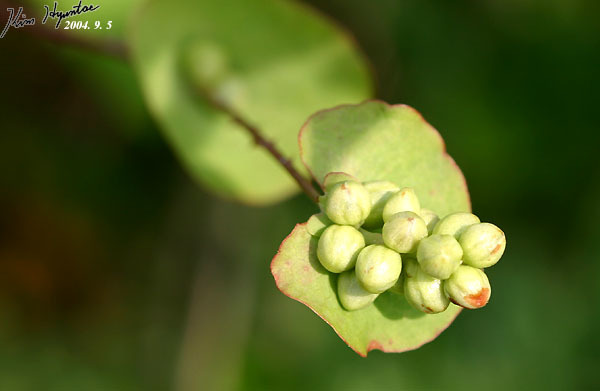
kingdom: Plantae
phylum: Tracheophyta
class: Magnoliopsida
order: Caryophyllales
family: Polygonaceae
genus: Persicaria
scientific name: Persicaria perfoliata
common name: Asiatic tearthumb
